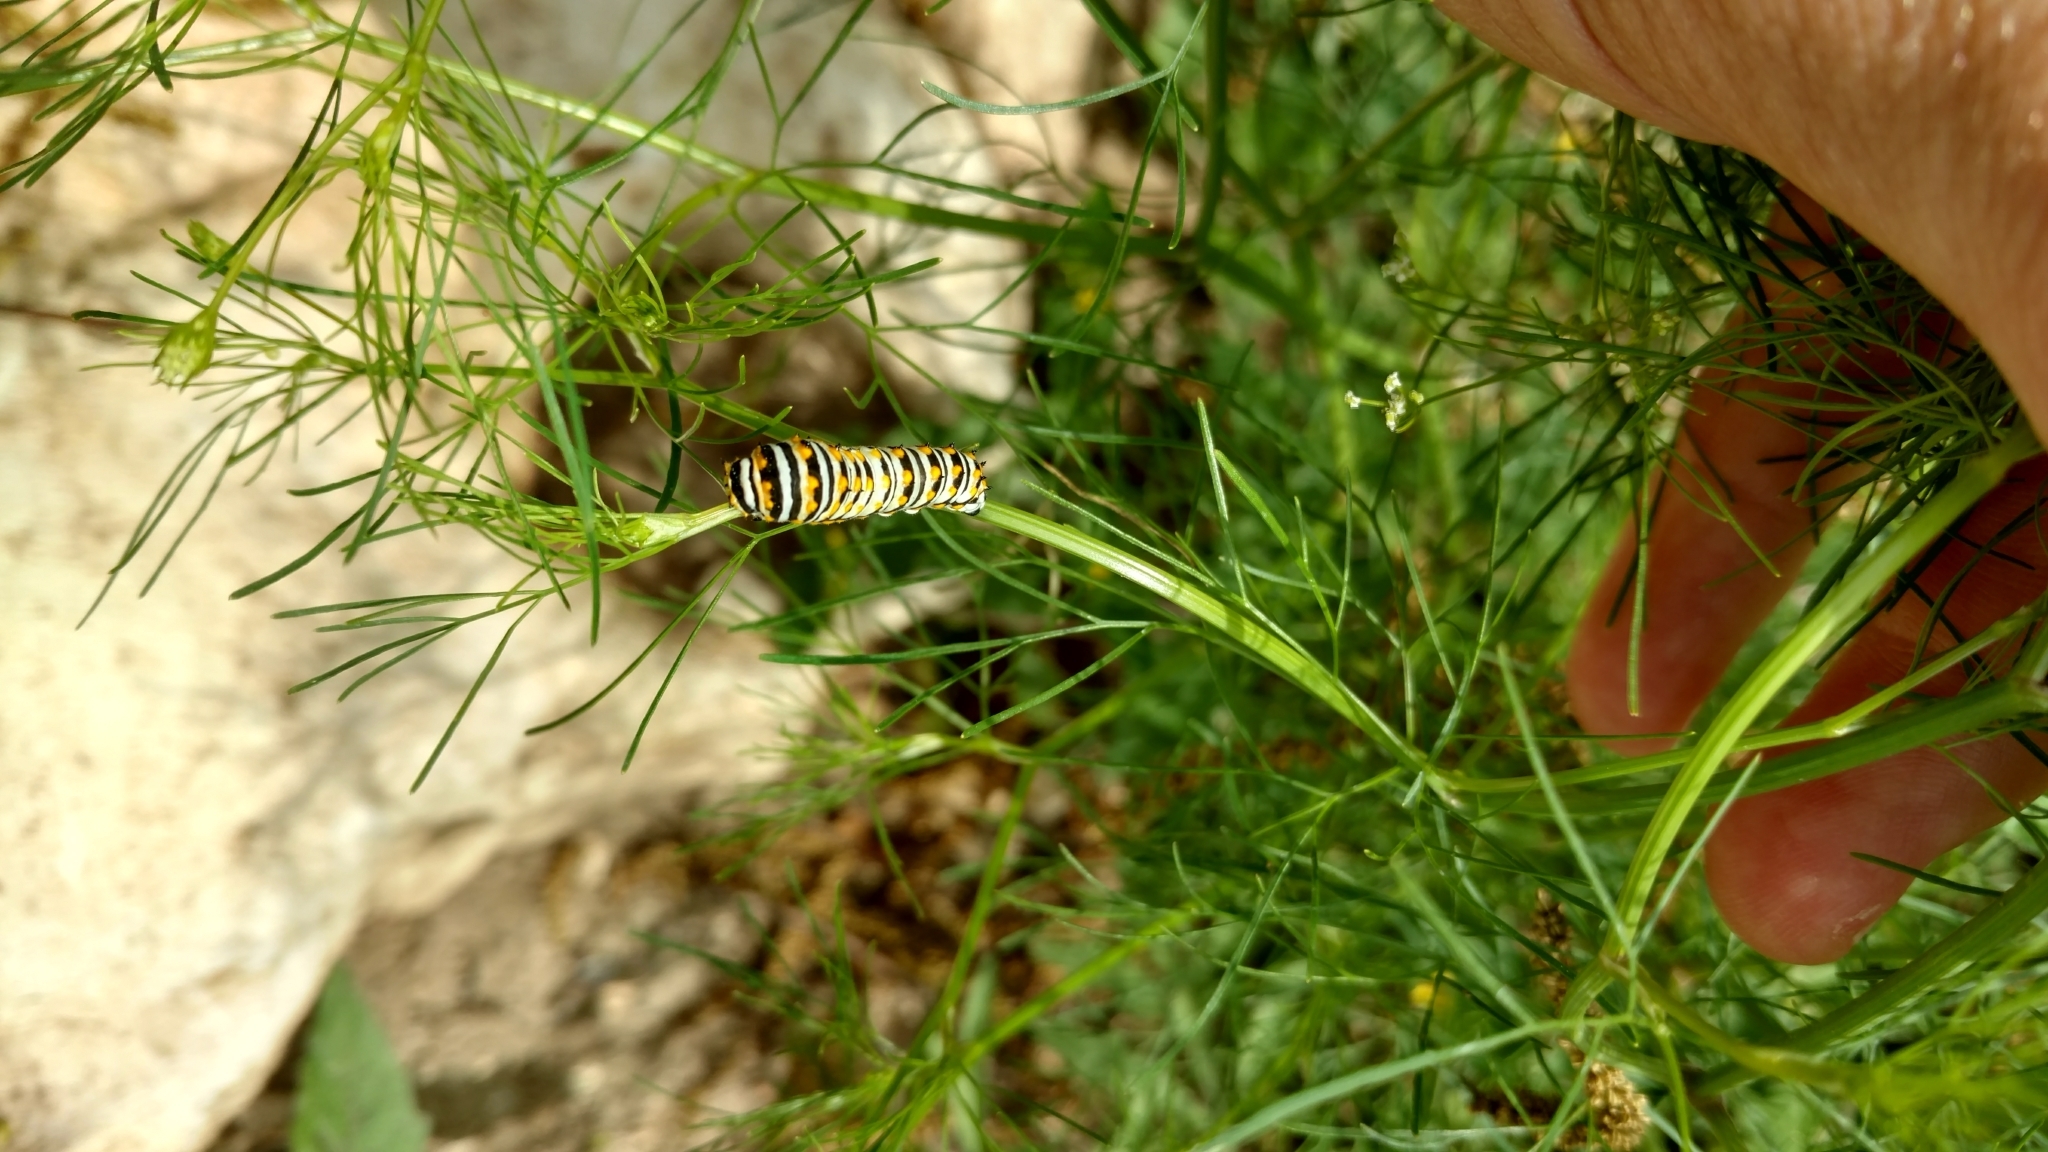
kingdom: Animalia
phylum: Arthropoda
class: Insecta
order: Lepidoptera
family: Papilionidae
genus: Papilio
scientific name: Papilio polyxenes
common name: Black swallowtail
